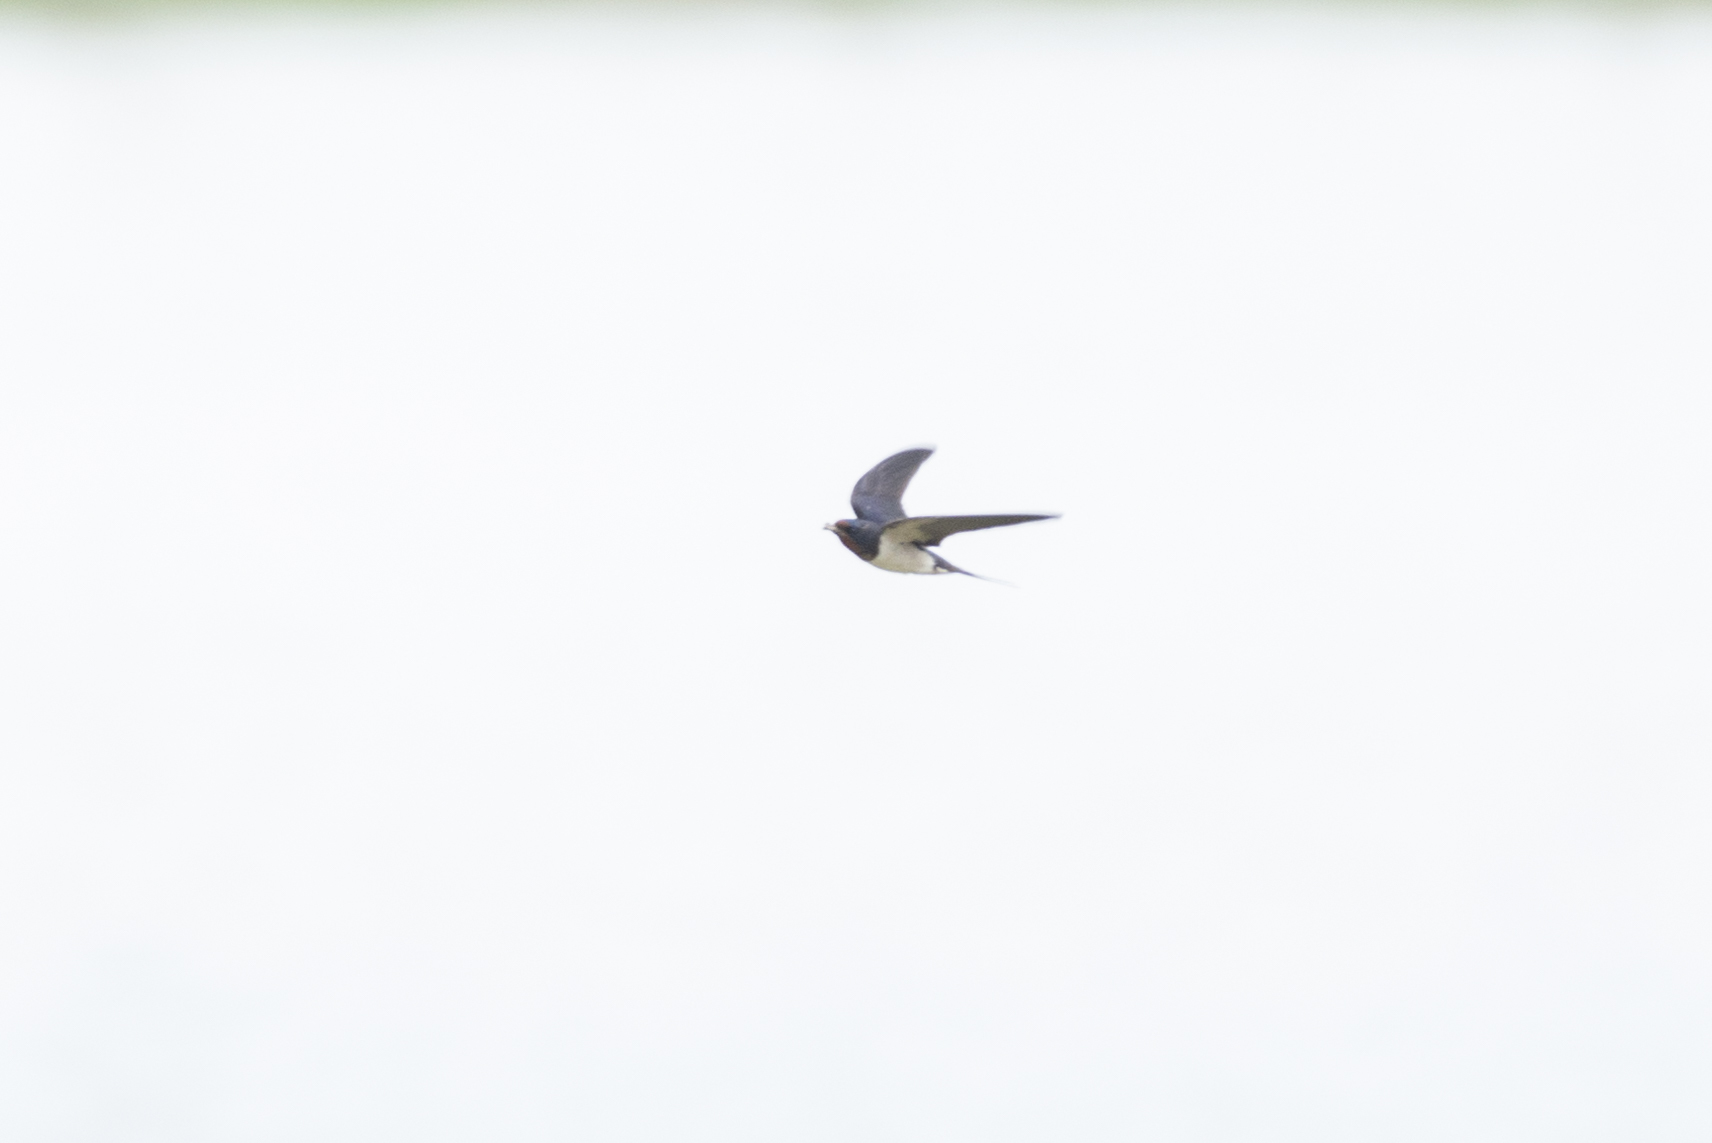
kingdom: Animalia
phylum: Chordata
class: Aves
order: Passeriformes
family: Hirundinidae
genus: Hirundo
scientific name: Hirundo rustica
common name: Barn swallow
